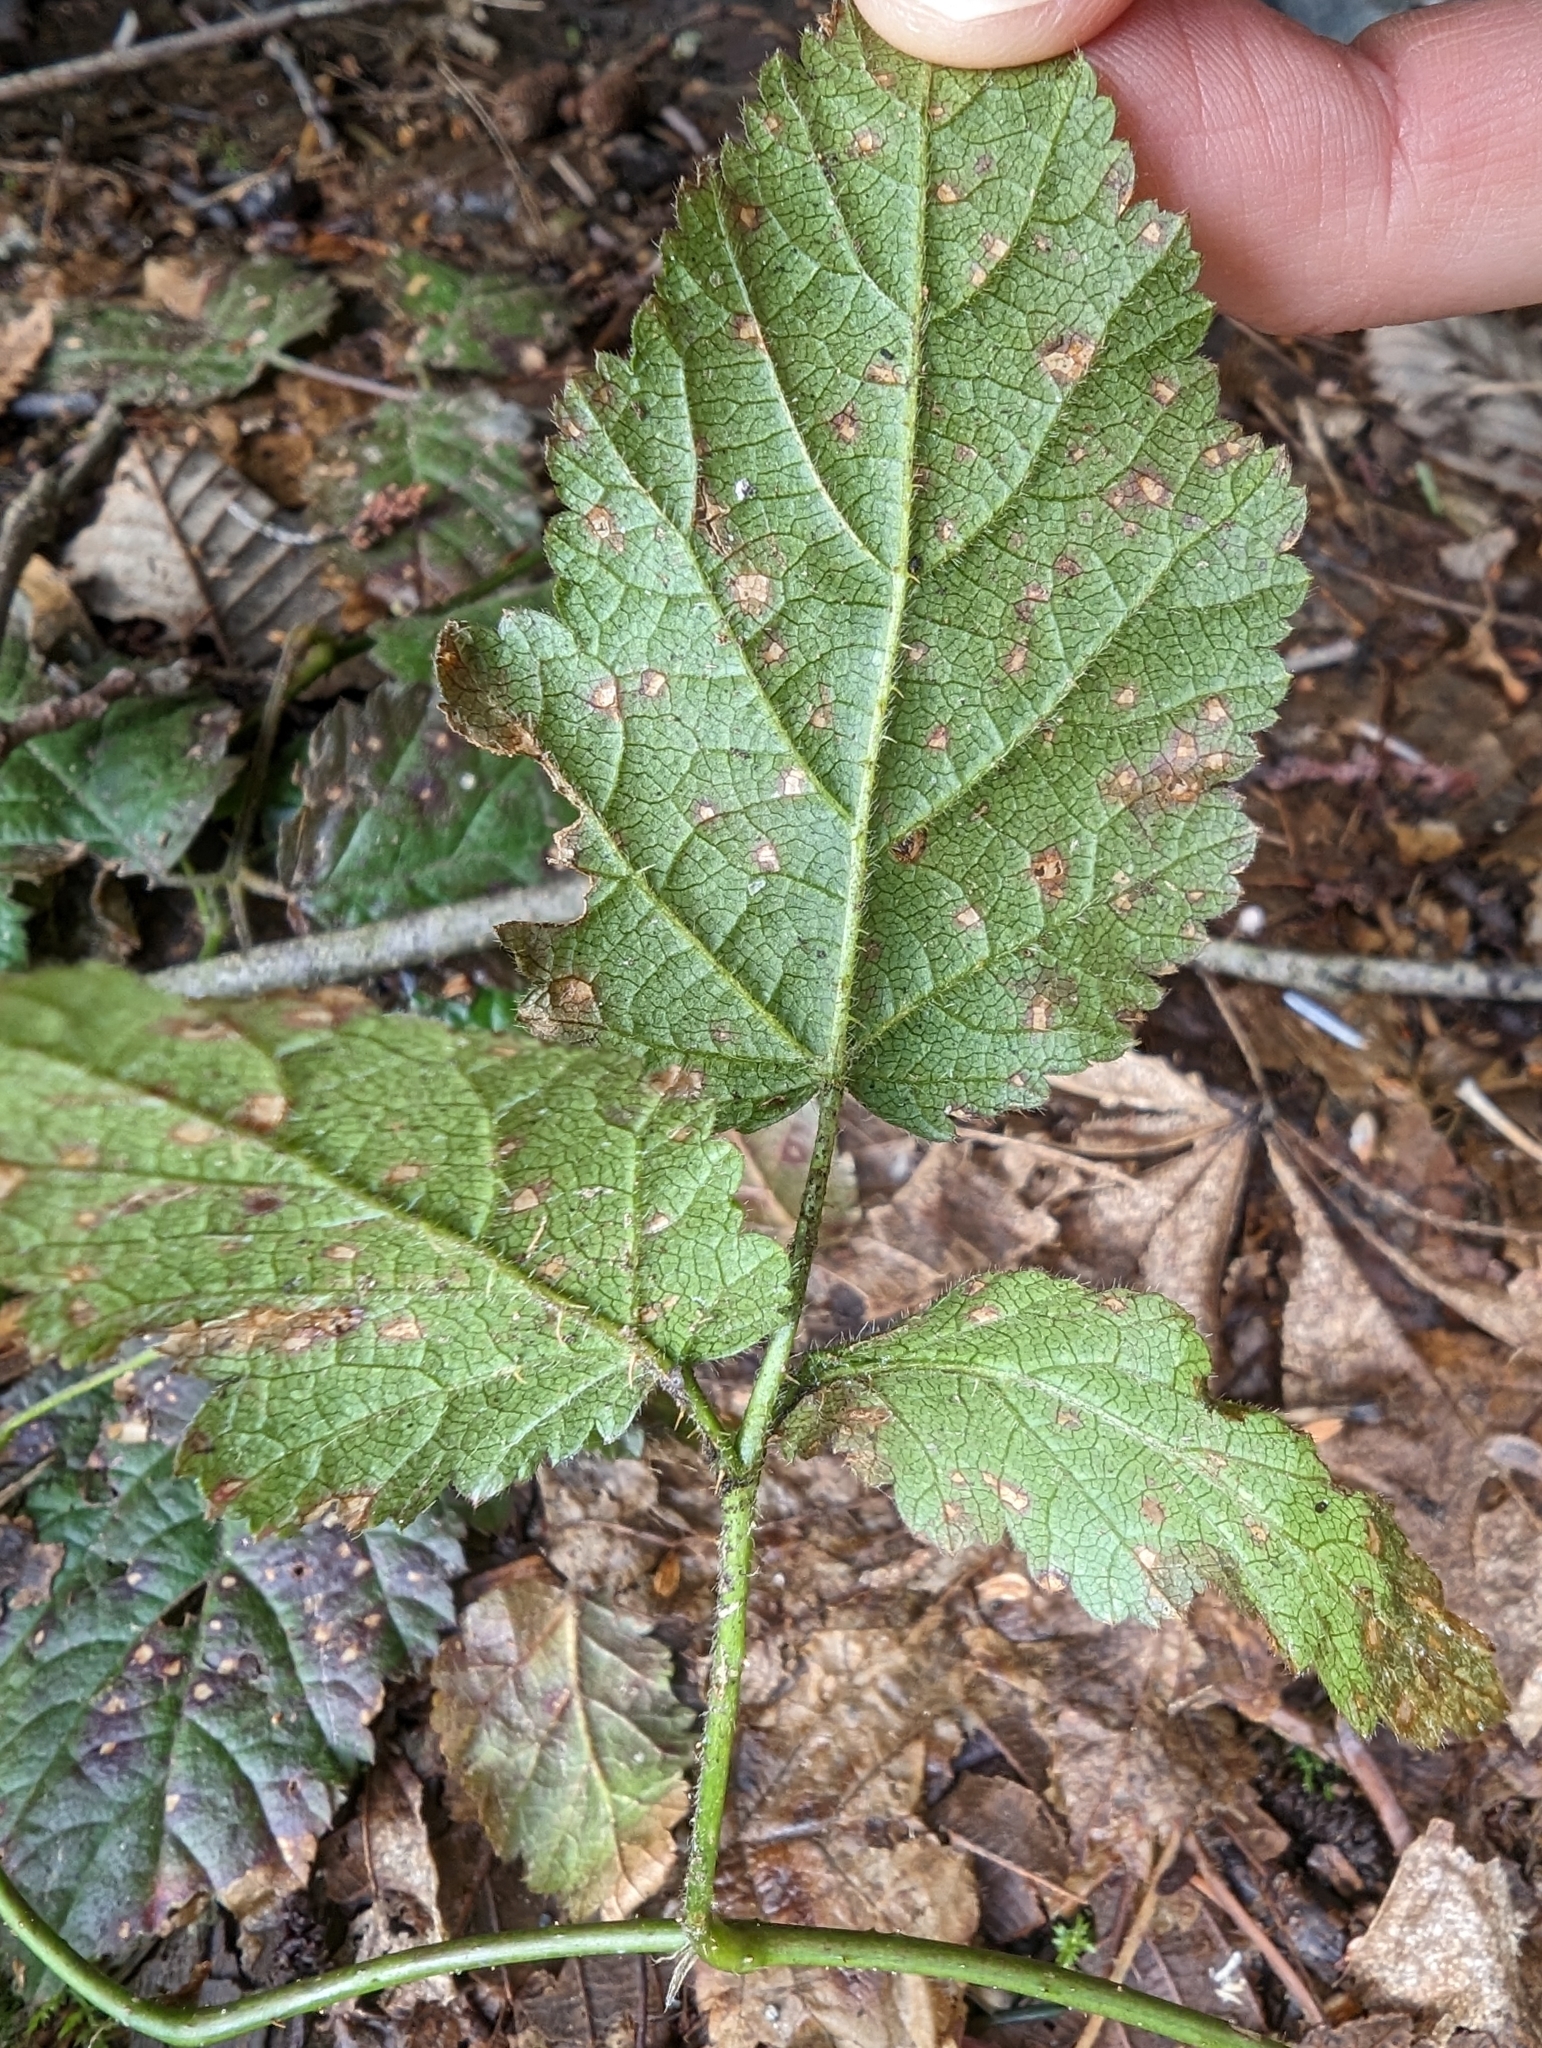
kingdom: Plantae
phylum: Tracheophyta
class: Magnoliopsida
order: Rosales
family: Rosaceae
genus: Rubus
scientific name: Rubus ursinus
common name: Pacific blackberry
